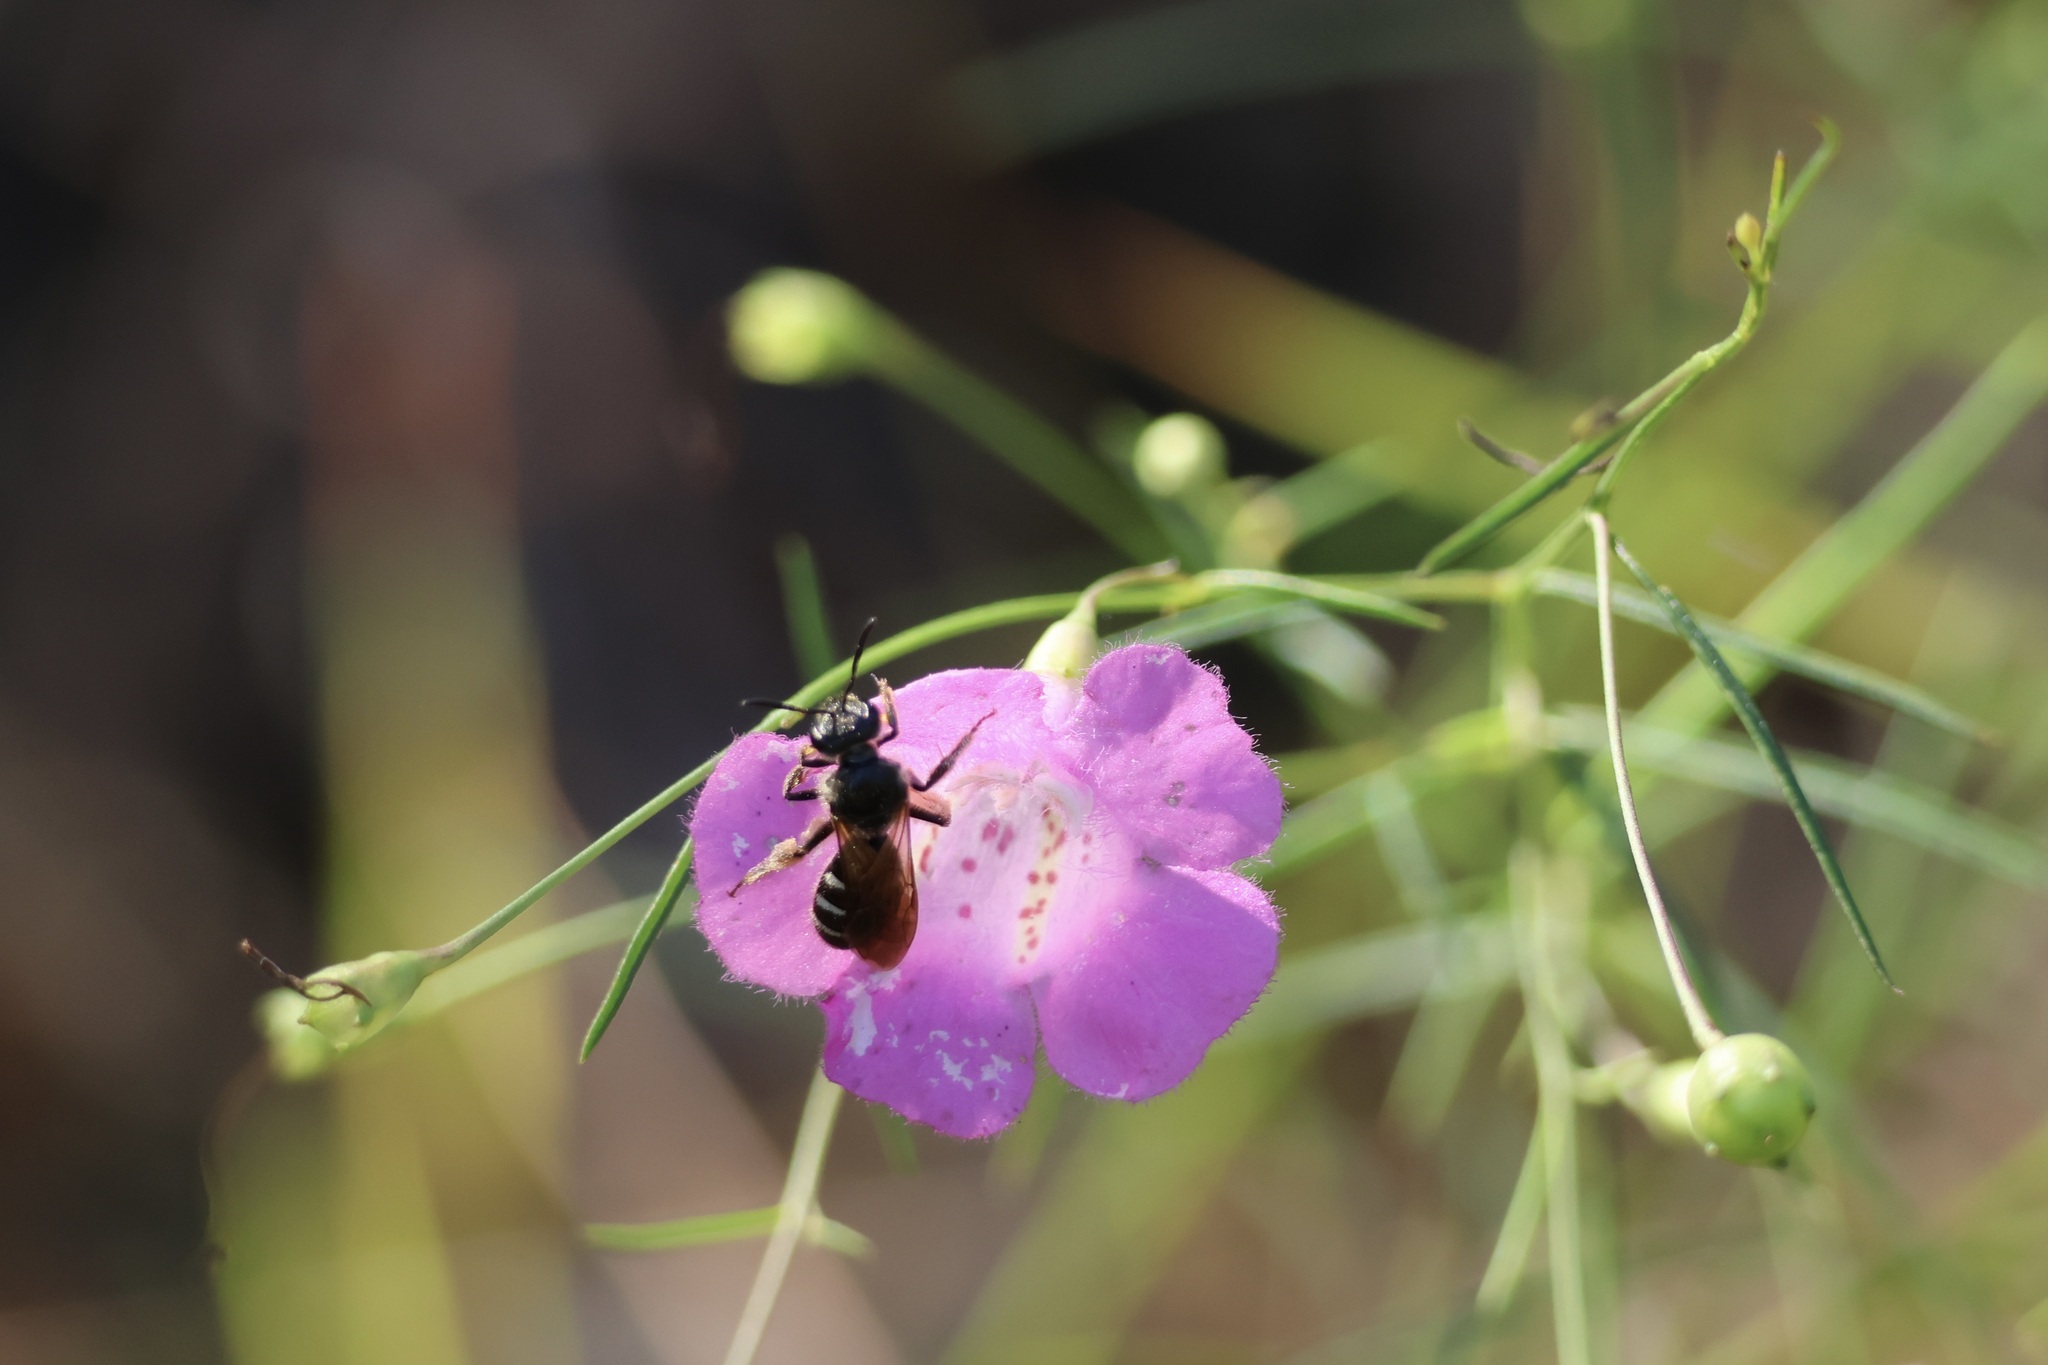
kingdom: Animalia
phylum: Arthropoda
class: Insecta
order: Hymenoptera
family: Halictidae
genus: Lasioglossum
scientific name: Lasioglossum fuscipenne
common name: Brown-winged sweat bee
